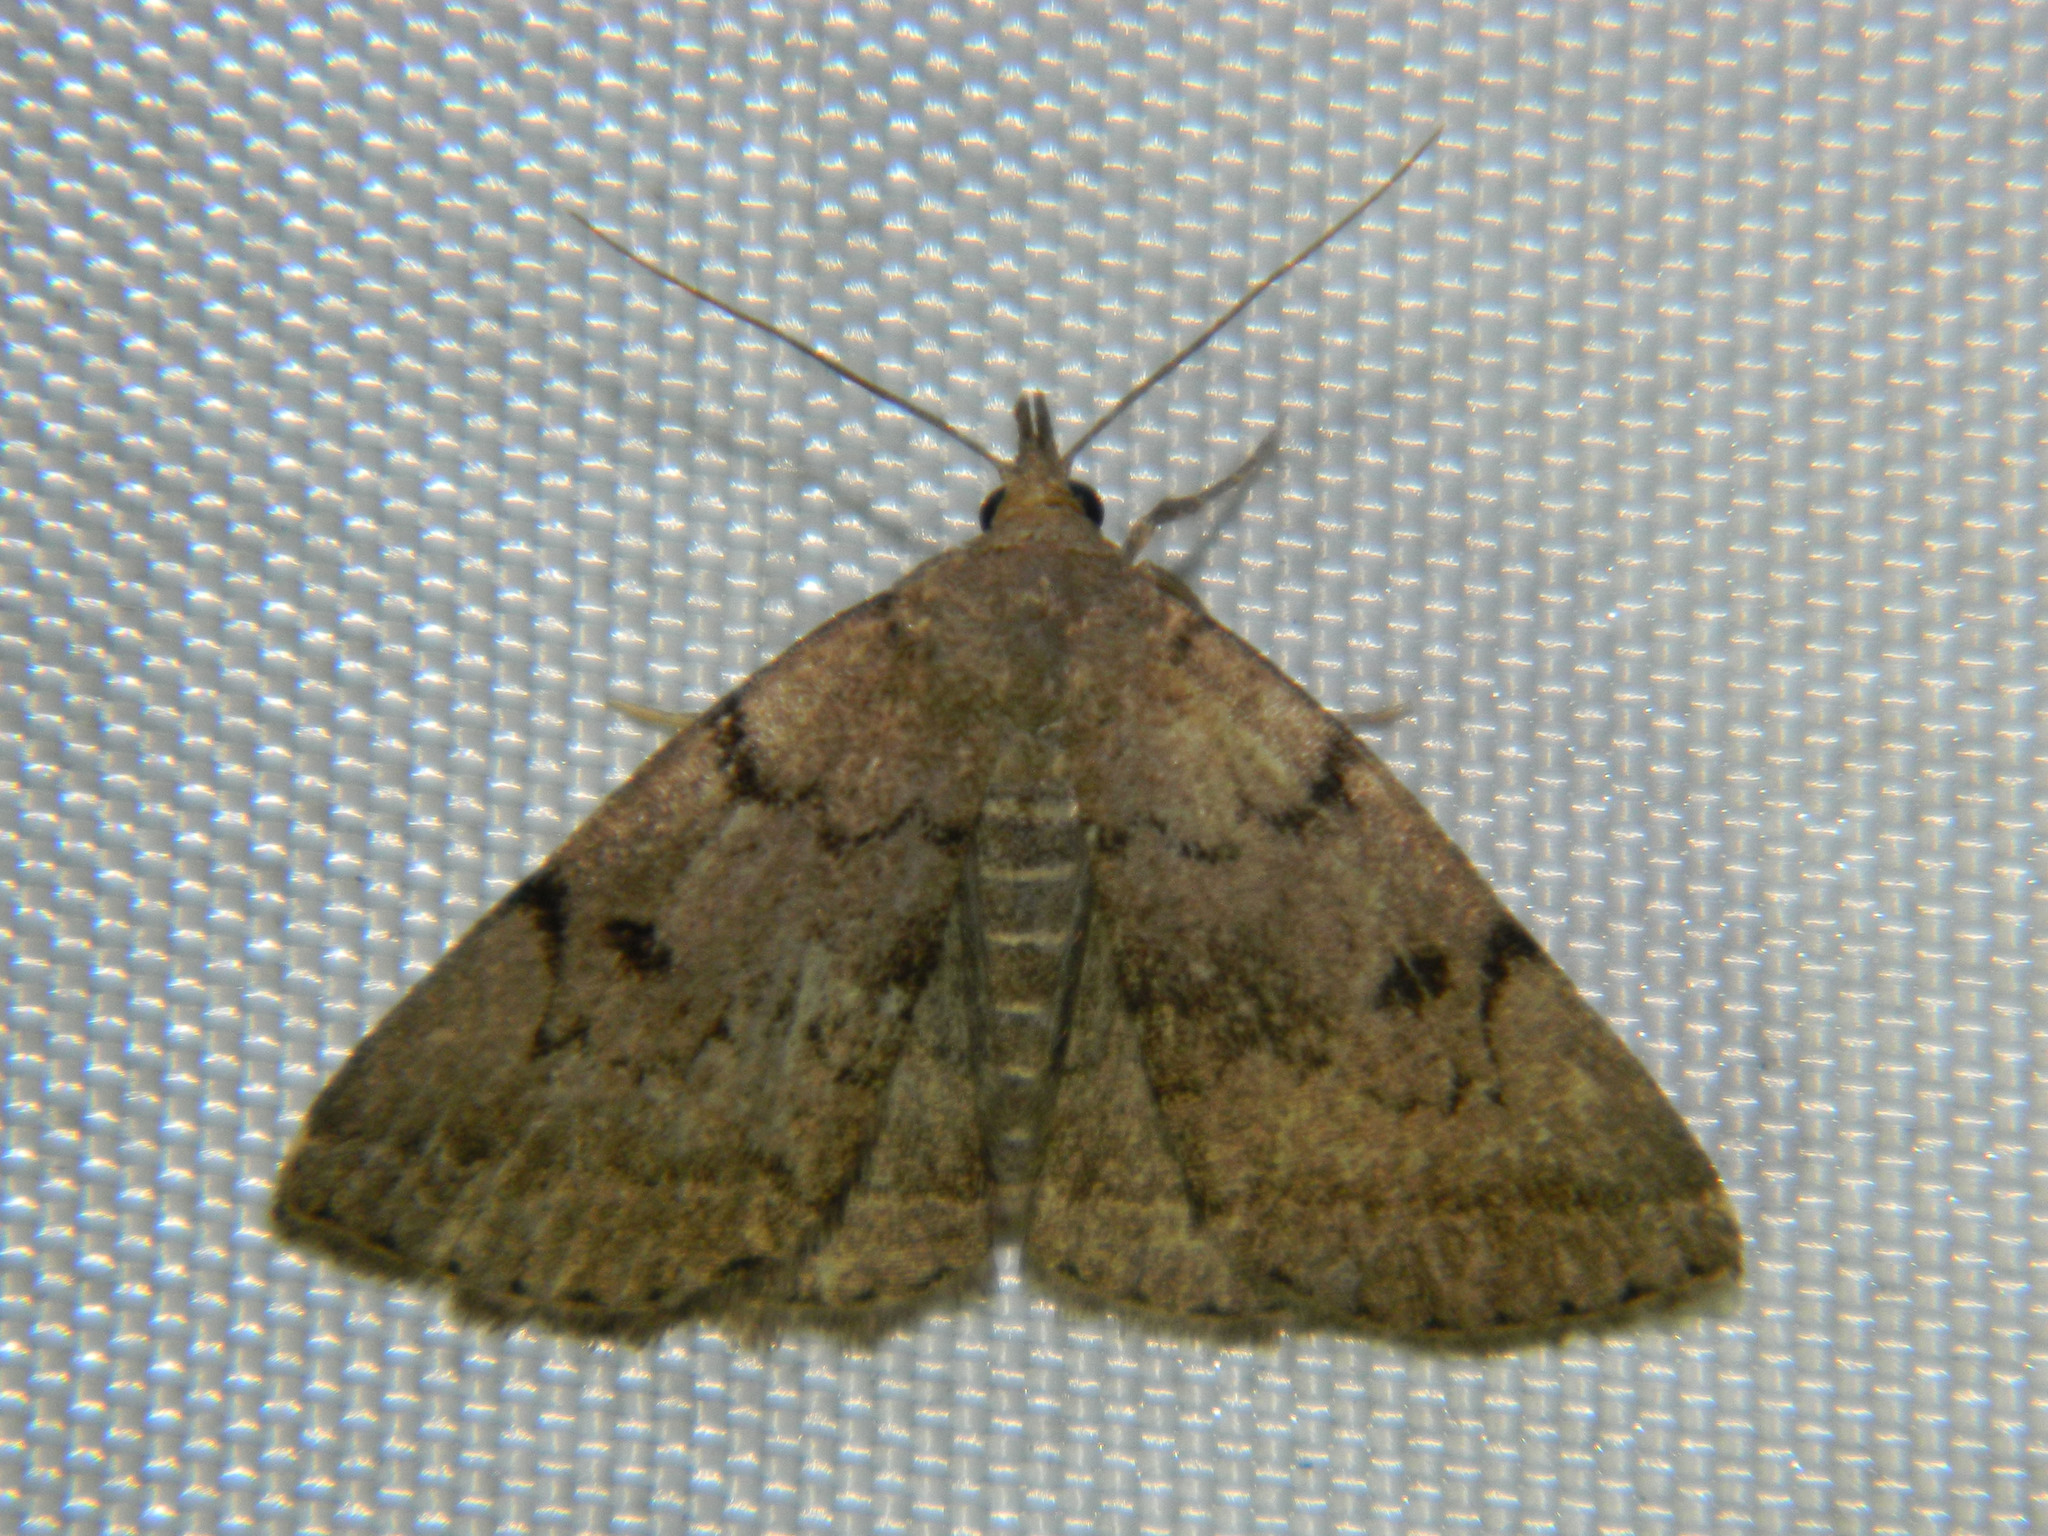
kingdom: Animalia
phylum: Arthropoda
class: Insecta
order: Lepidoptera
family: Erebidae
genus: Zanclognatha
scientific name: Zanclognatha dentata
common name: Toothed fan-foot
